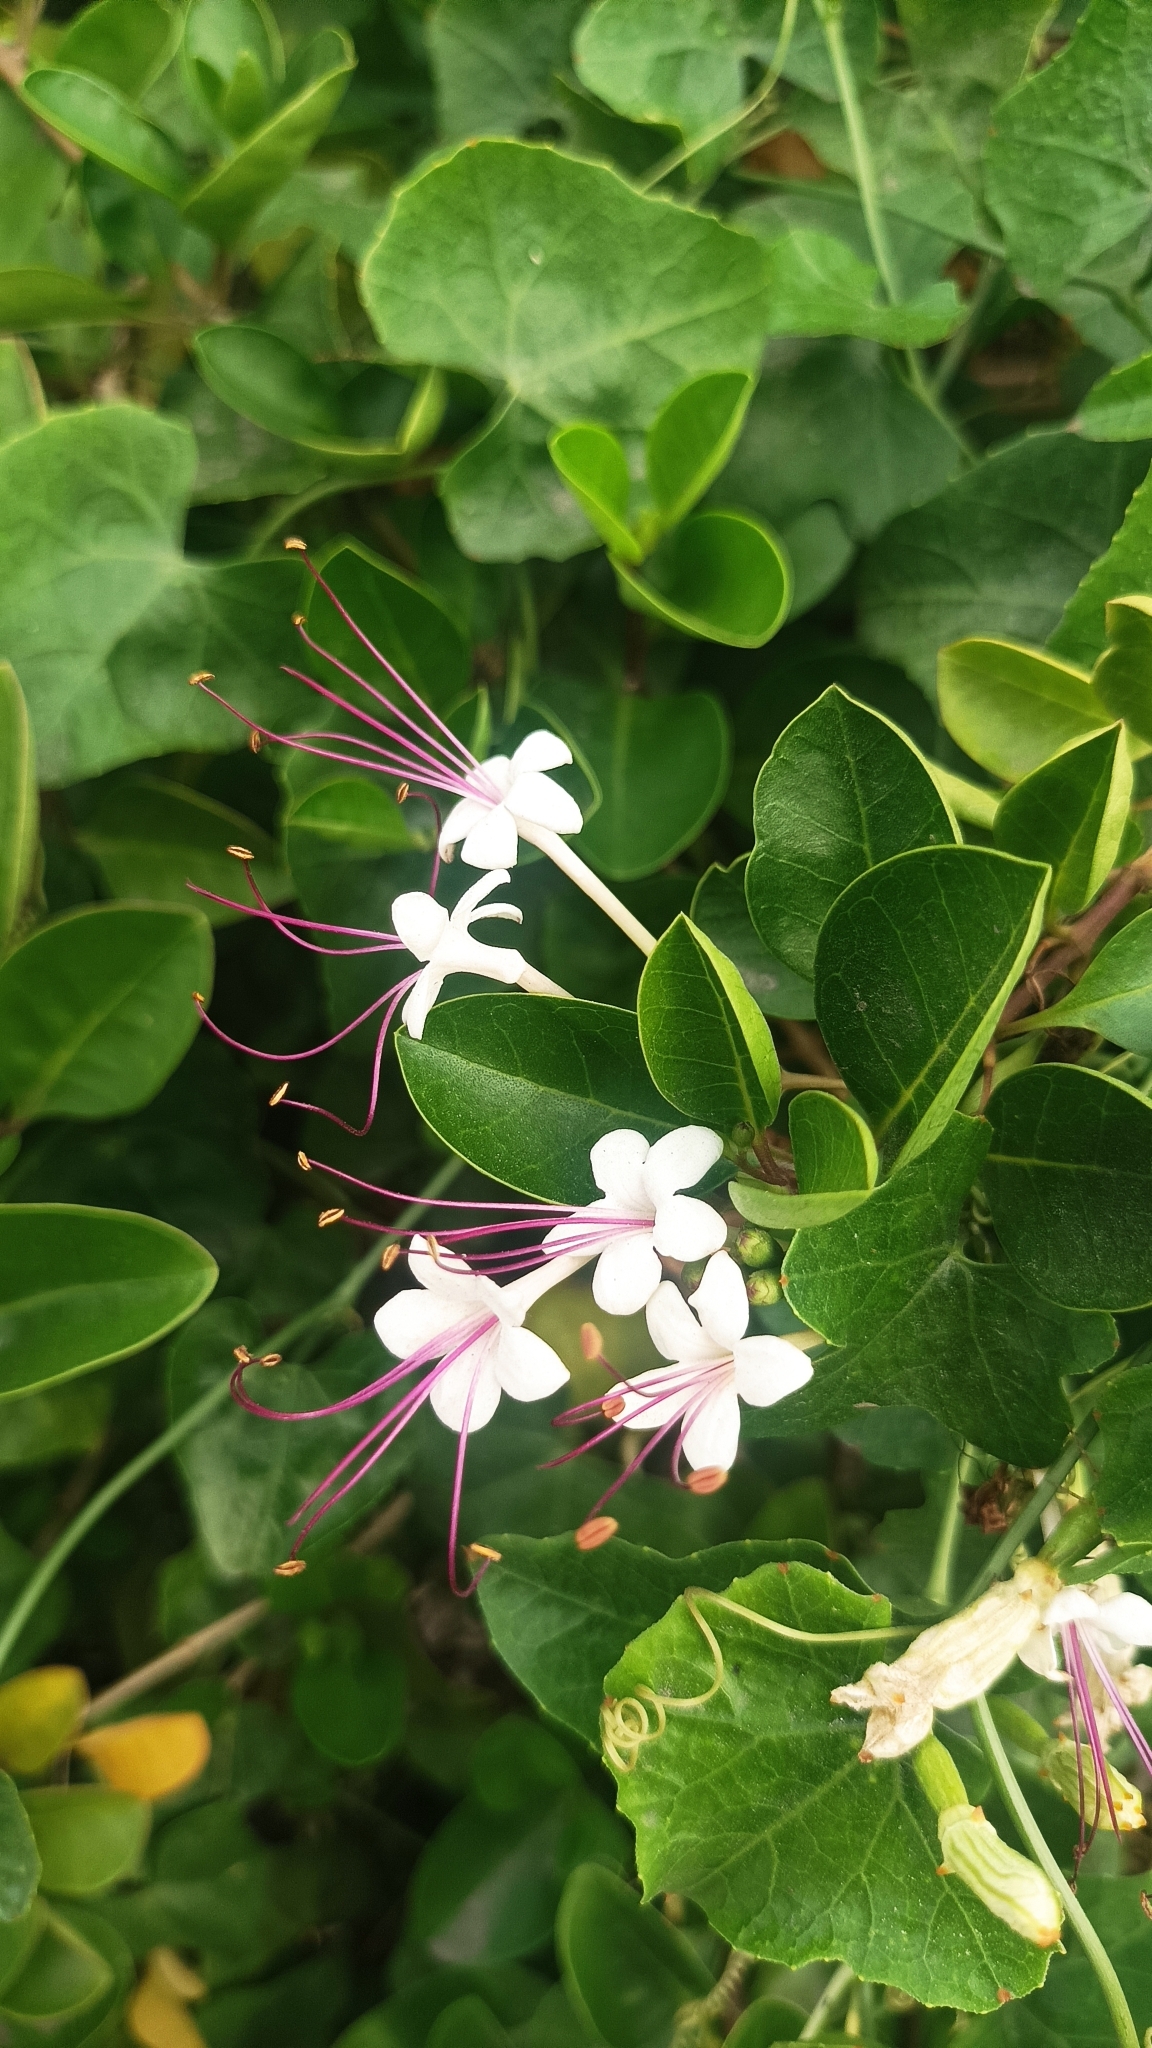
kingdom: Plantae
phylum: Tracheophyta
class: Magnoliopsida
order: Lamiales
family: Lamiaceae
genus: Volkameria
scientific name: Volkameria inermis
